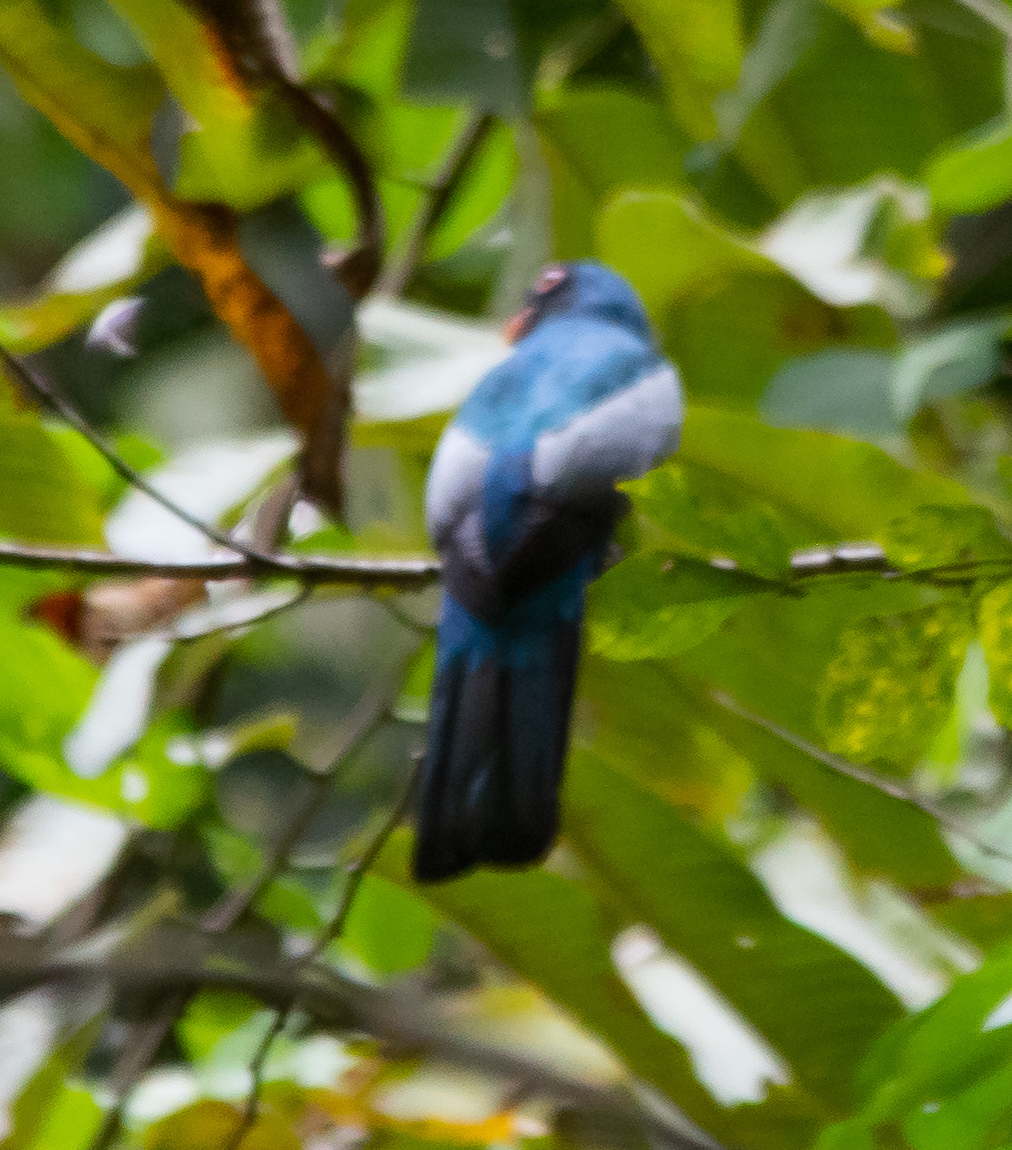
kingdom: Animalia
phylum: Chordata
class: Aves
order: Trogoniformes
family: Trogonidae
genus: Trogon
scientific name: Trogon massena
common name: Slaty-tailed trogon
